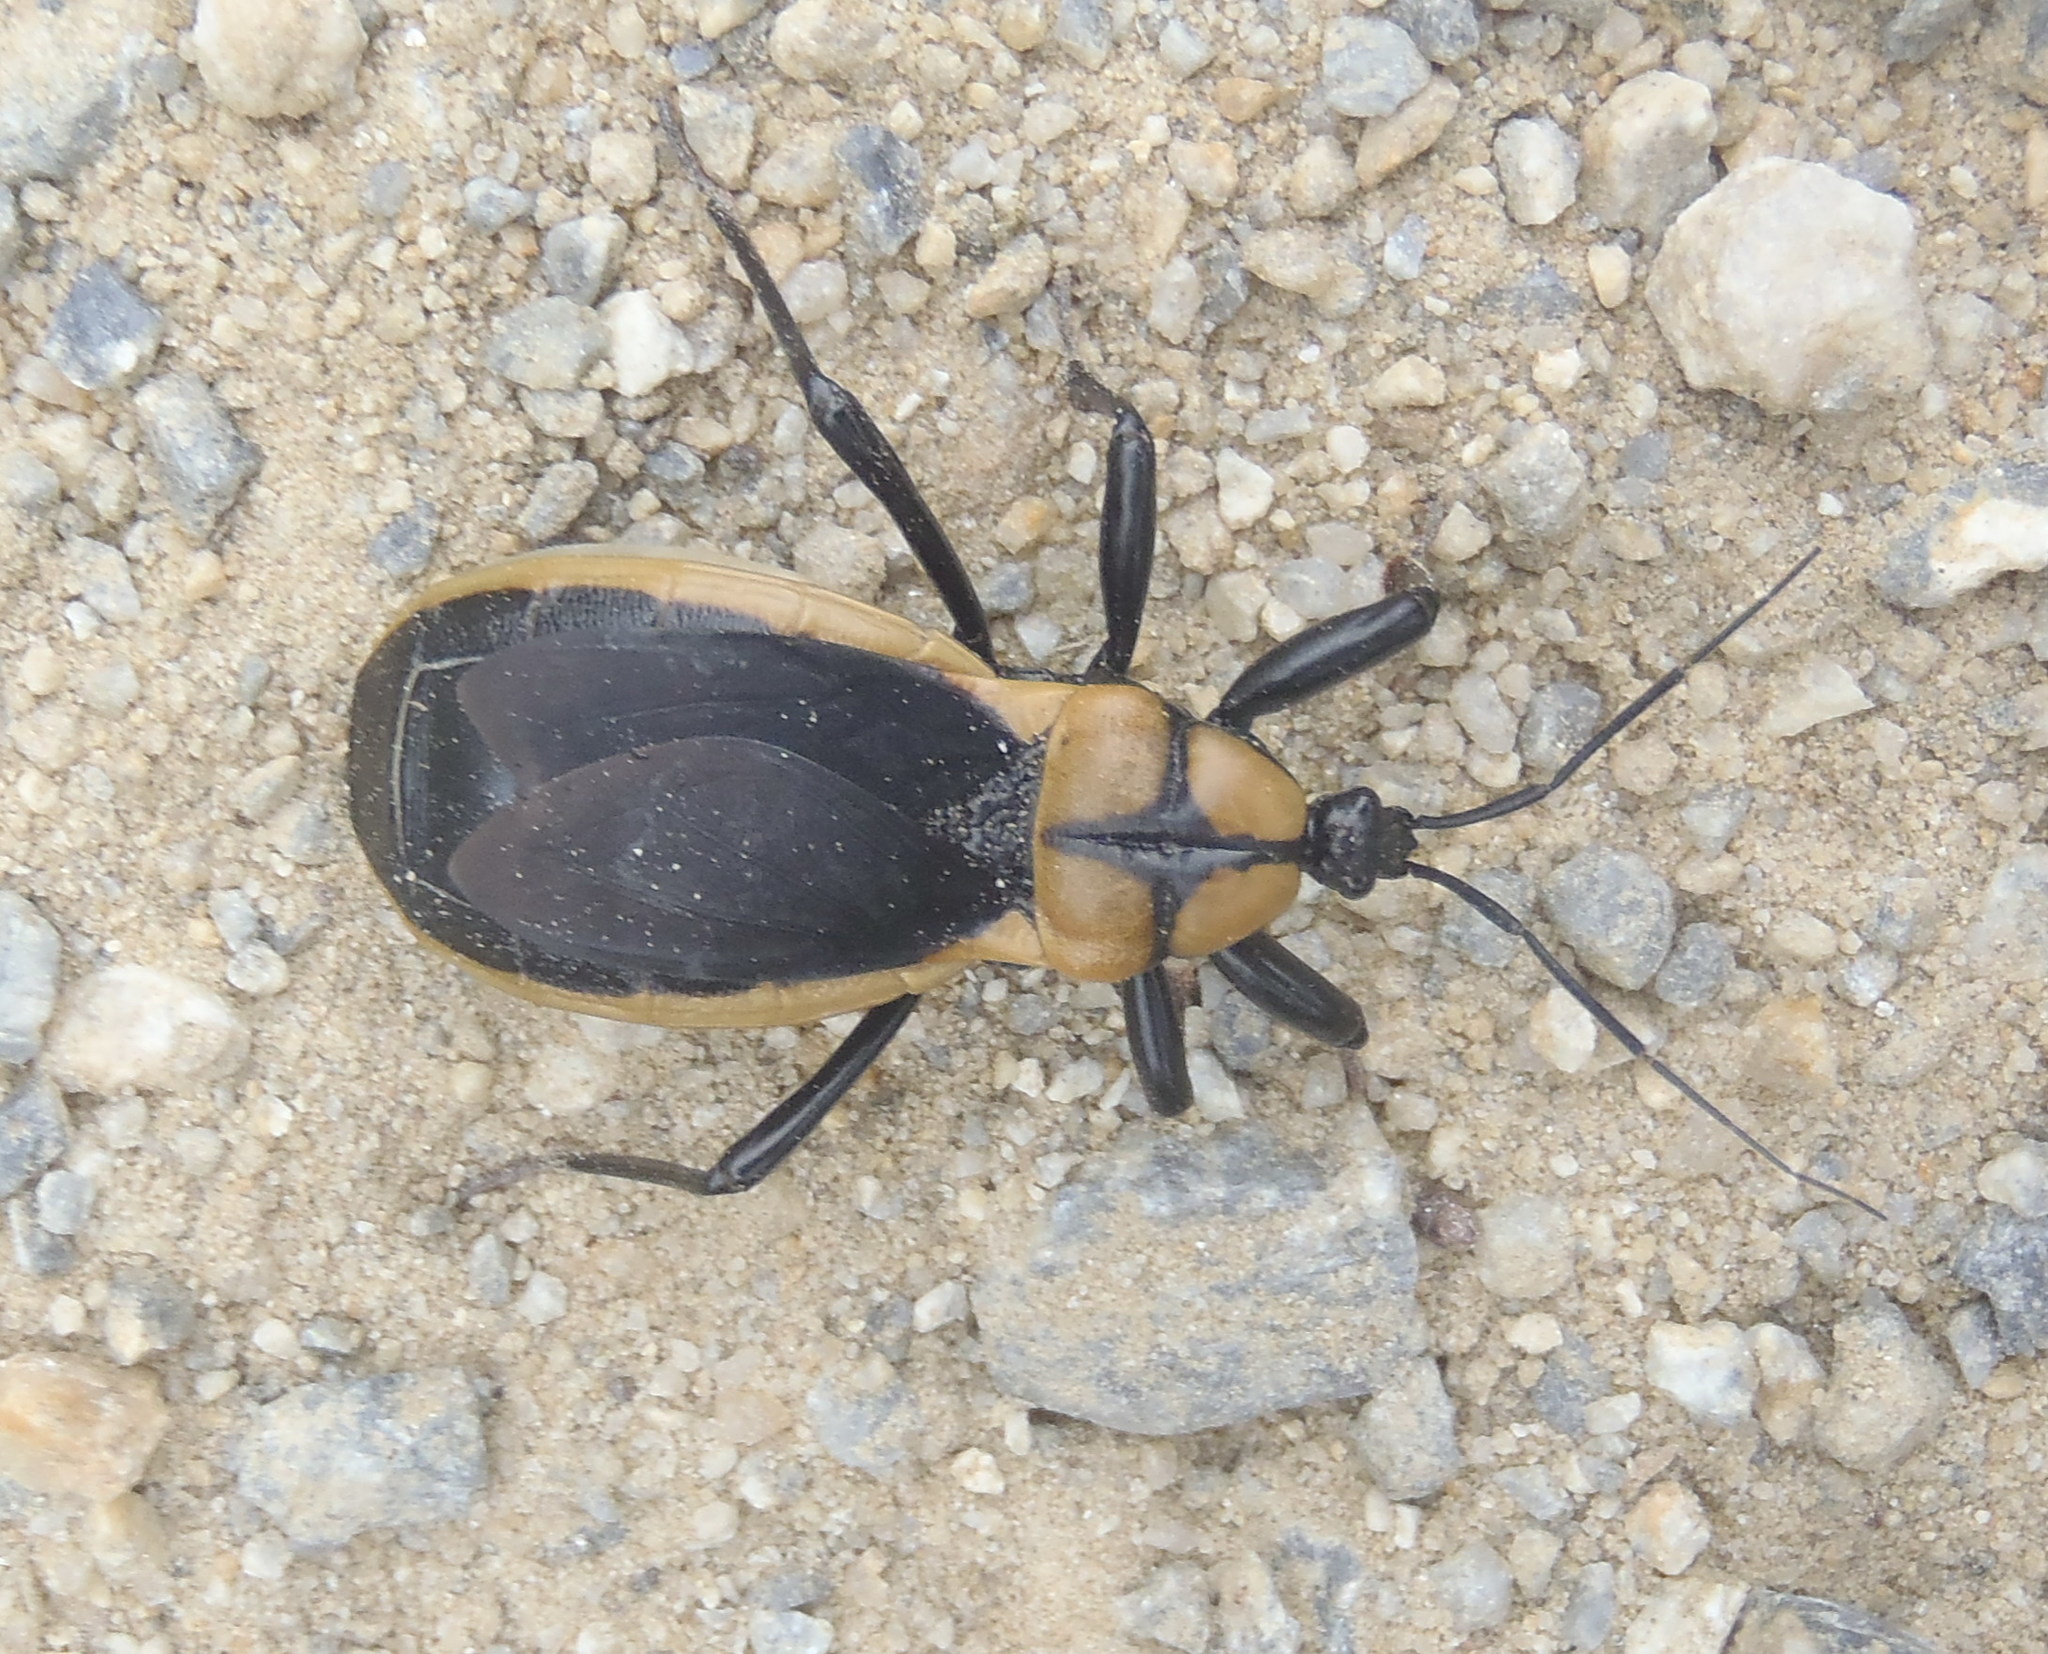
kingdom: Animalia
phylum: Arthropoda
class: Insecta
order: Hemiptera
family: Reduviidae
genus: Ectrichodia
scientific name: Ectrichodia crux
